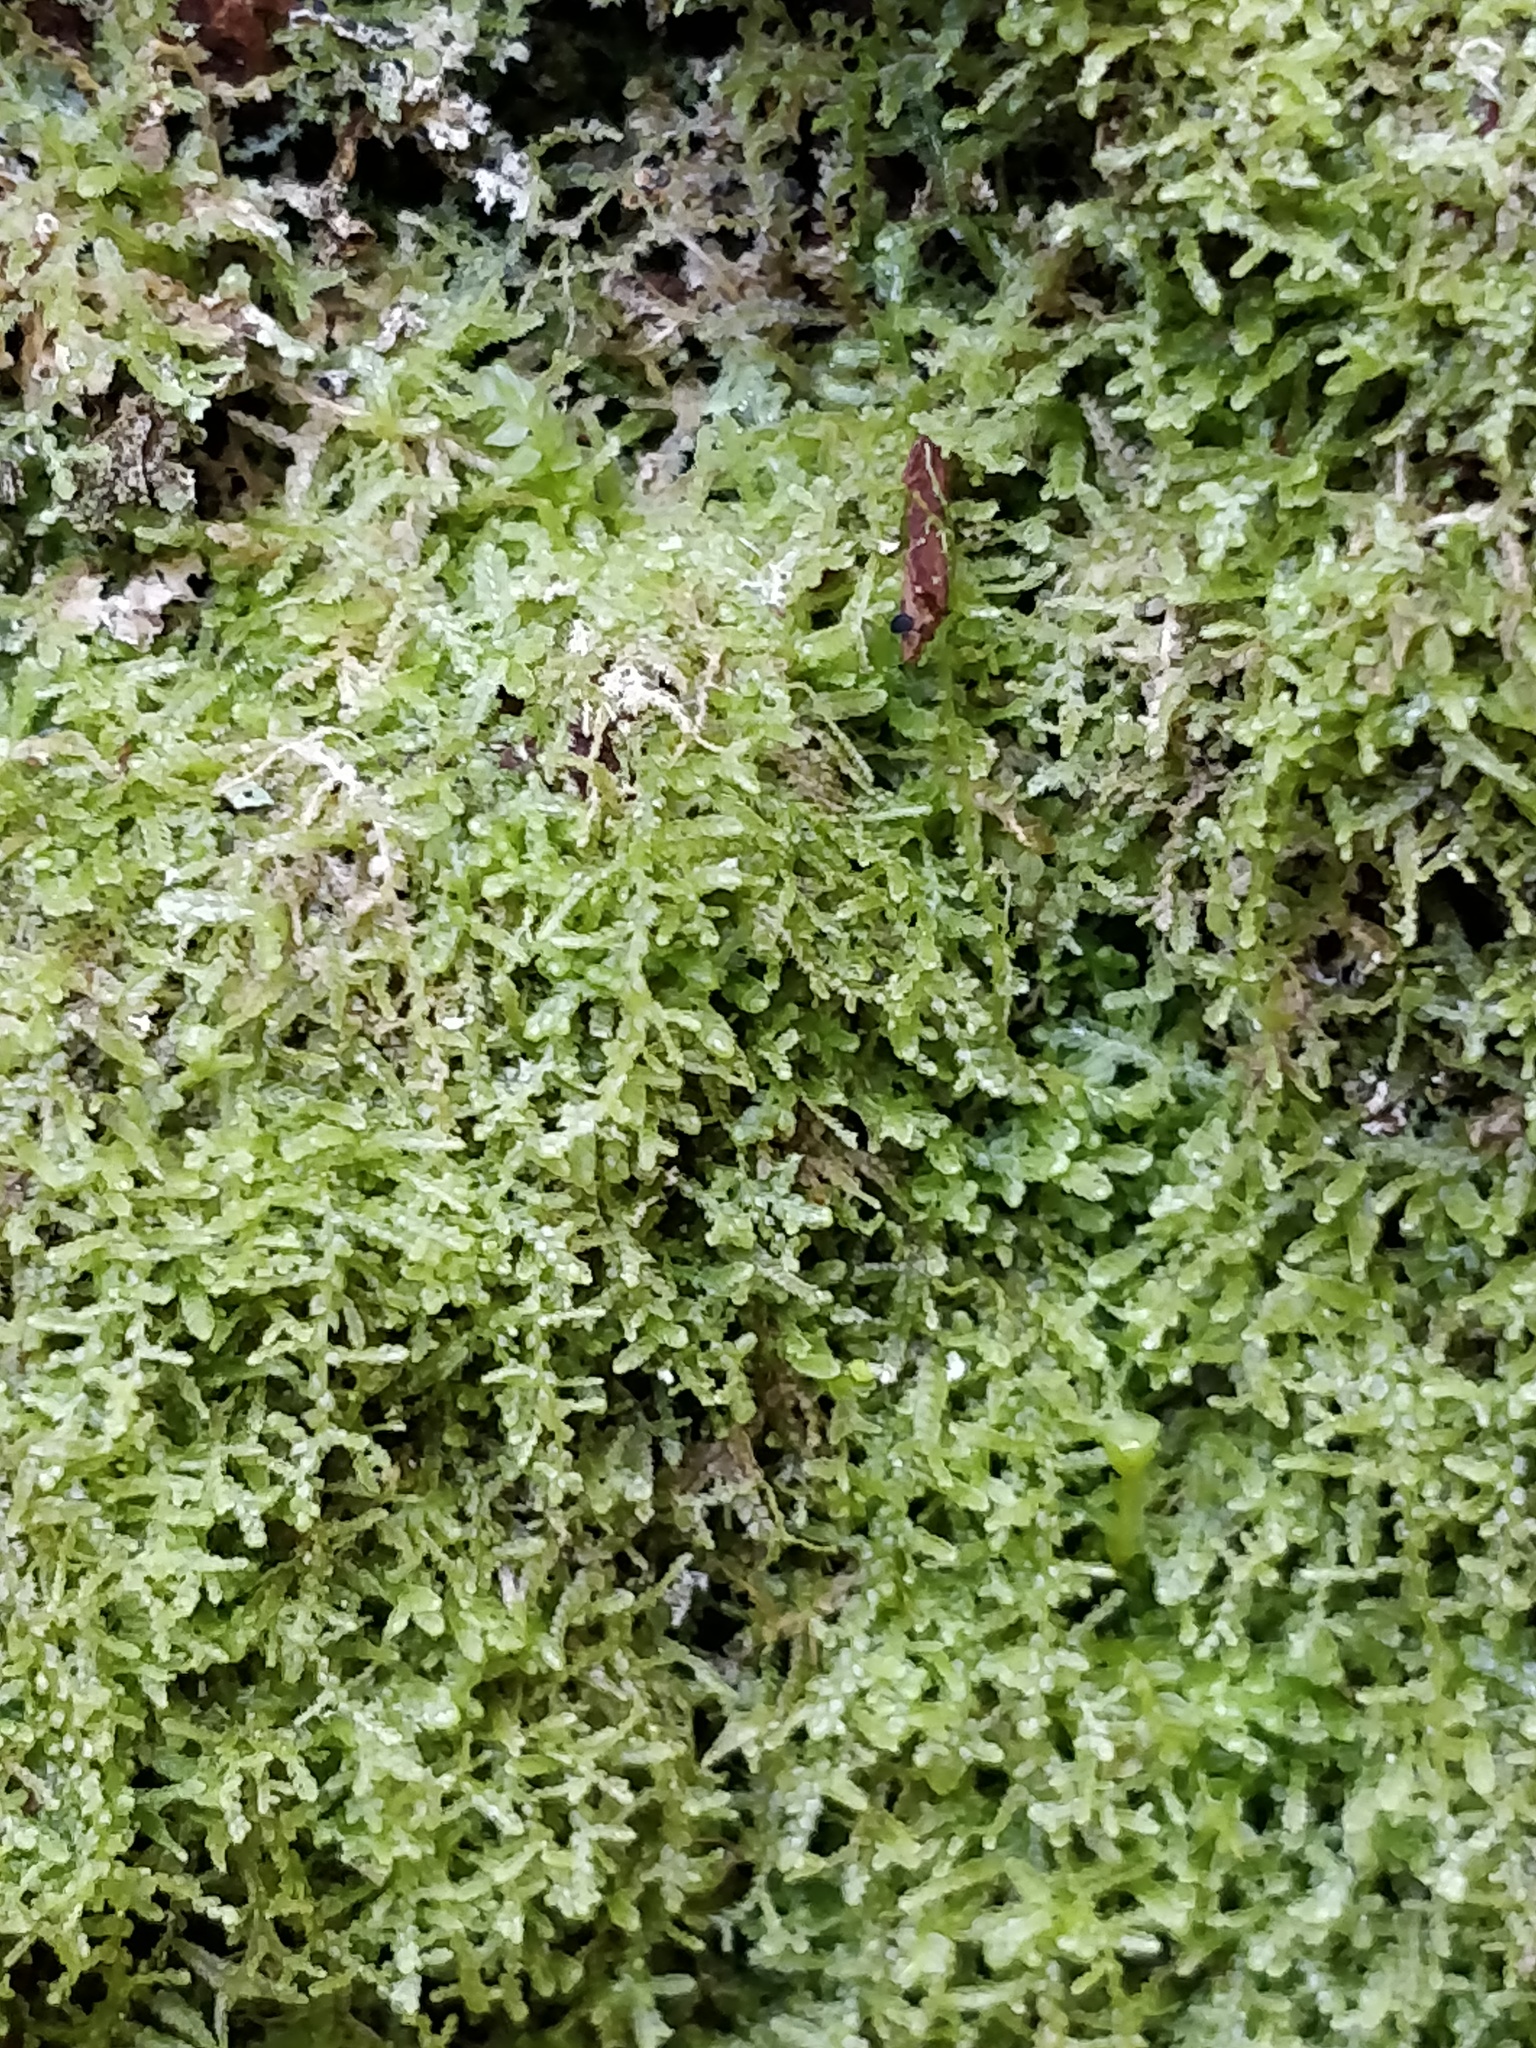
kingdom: Plantae
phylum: Marchantiophyta
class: Jungermanniopsida
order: Jungermanniales
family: Lepidoziaceae
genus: Lepidozia
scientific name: Lepidozia reptans
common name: Creeping fingerwort
